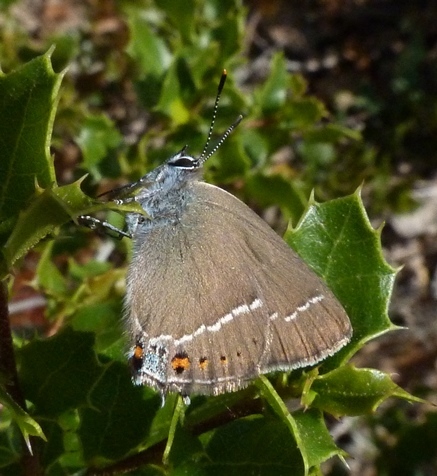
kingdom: Animalia
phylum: Arthropoda
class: Insecta
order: Lepidoptera
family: Lycaenidae
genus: Tuttiola
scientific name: Tuttiola spini
